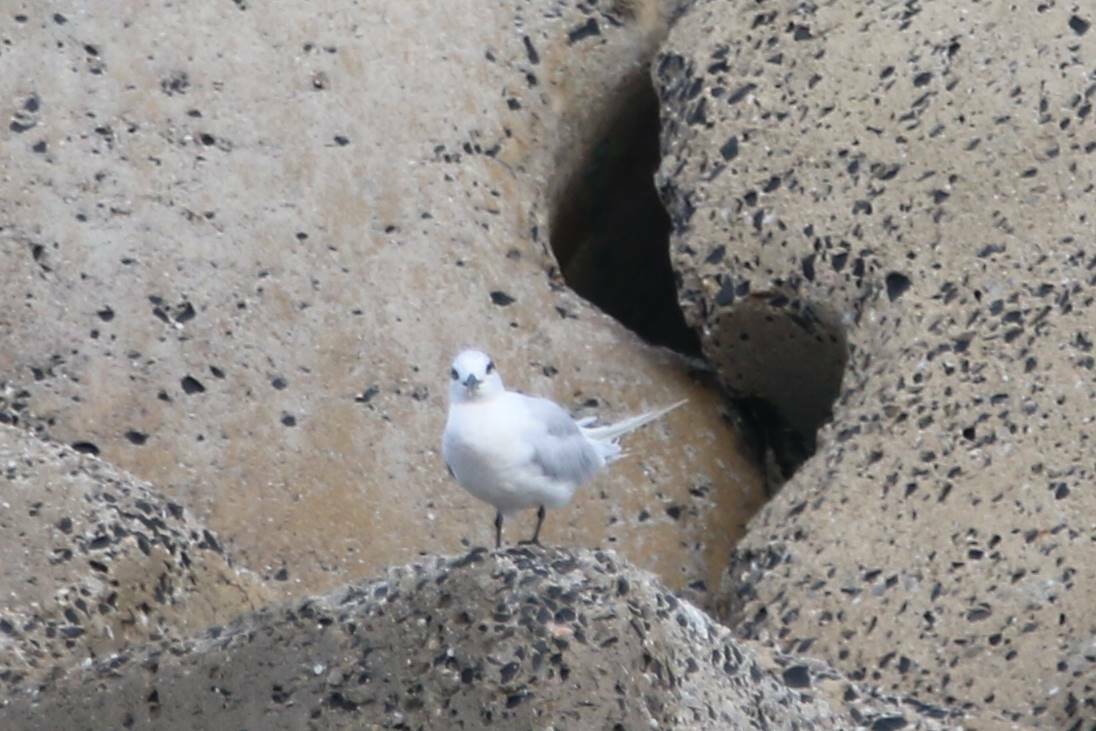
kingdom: Animalia
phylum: Chordata
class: Aves
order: Charadriiformes
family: Laridae
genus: Thalasseus
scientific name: Thalasseus sandvicensis
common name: Sandwich tern
